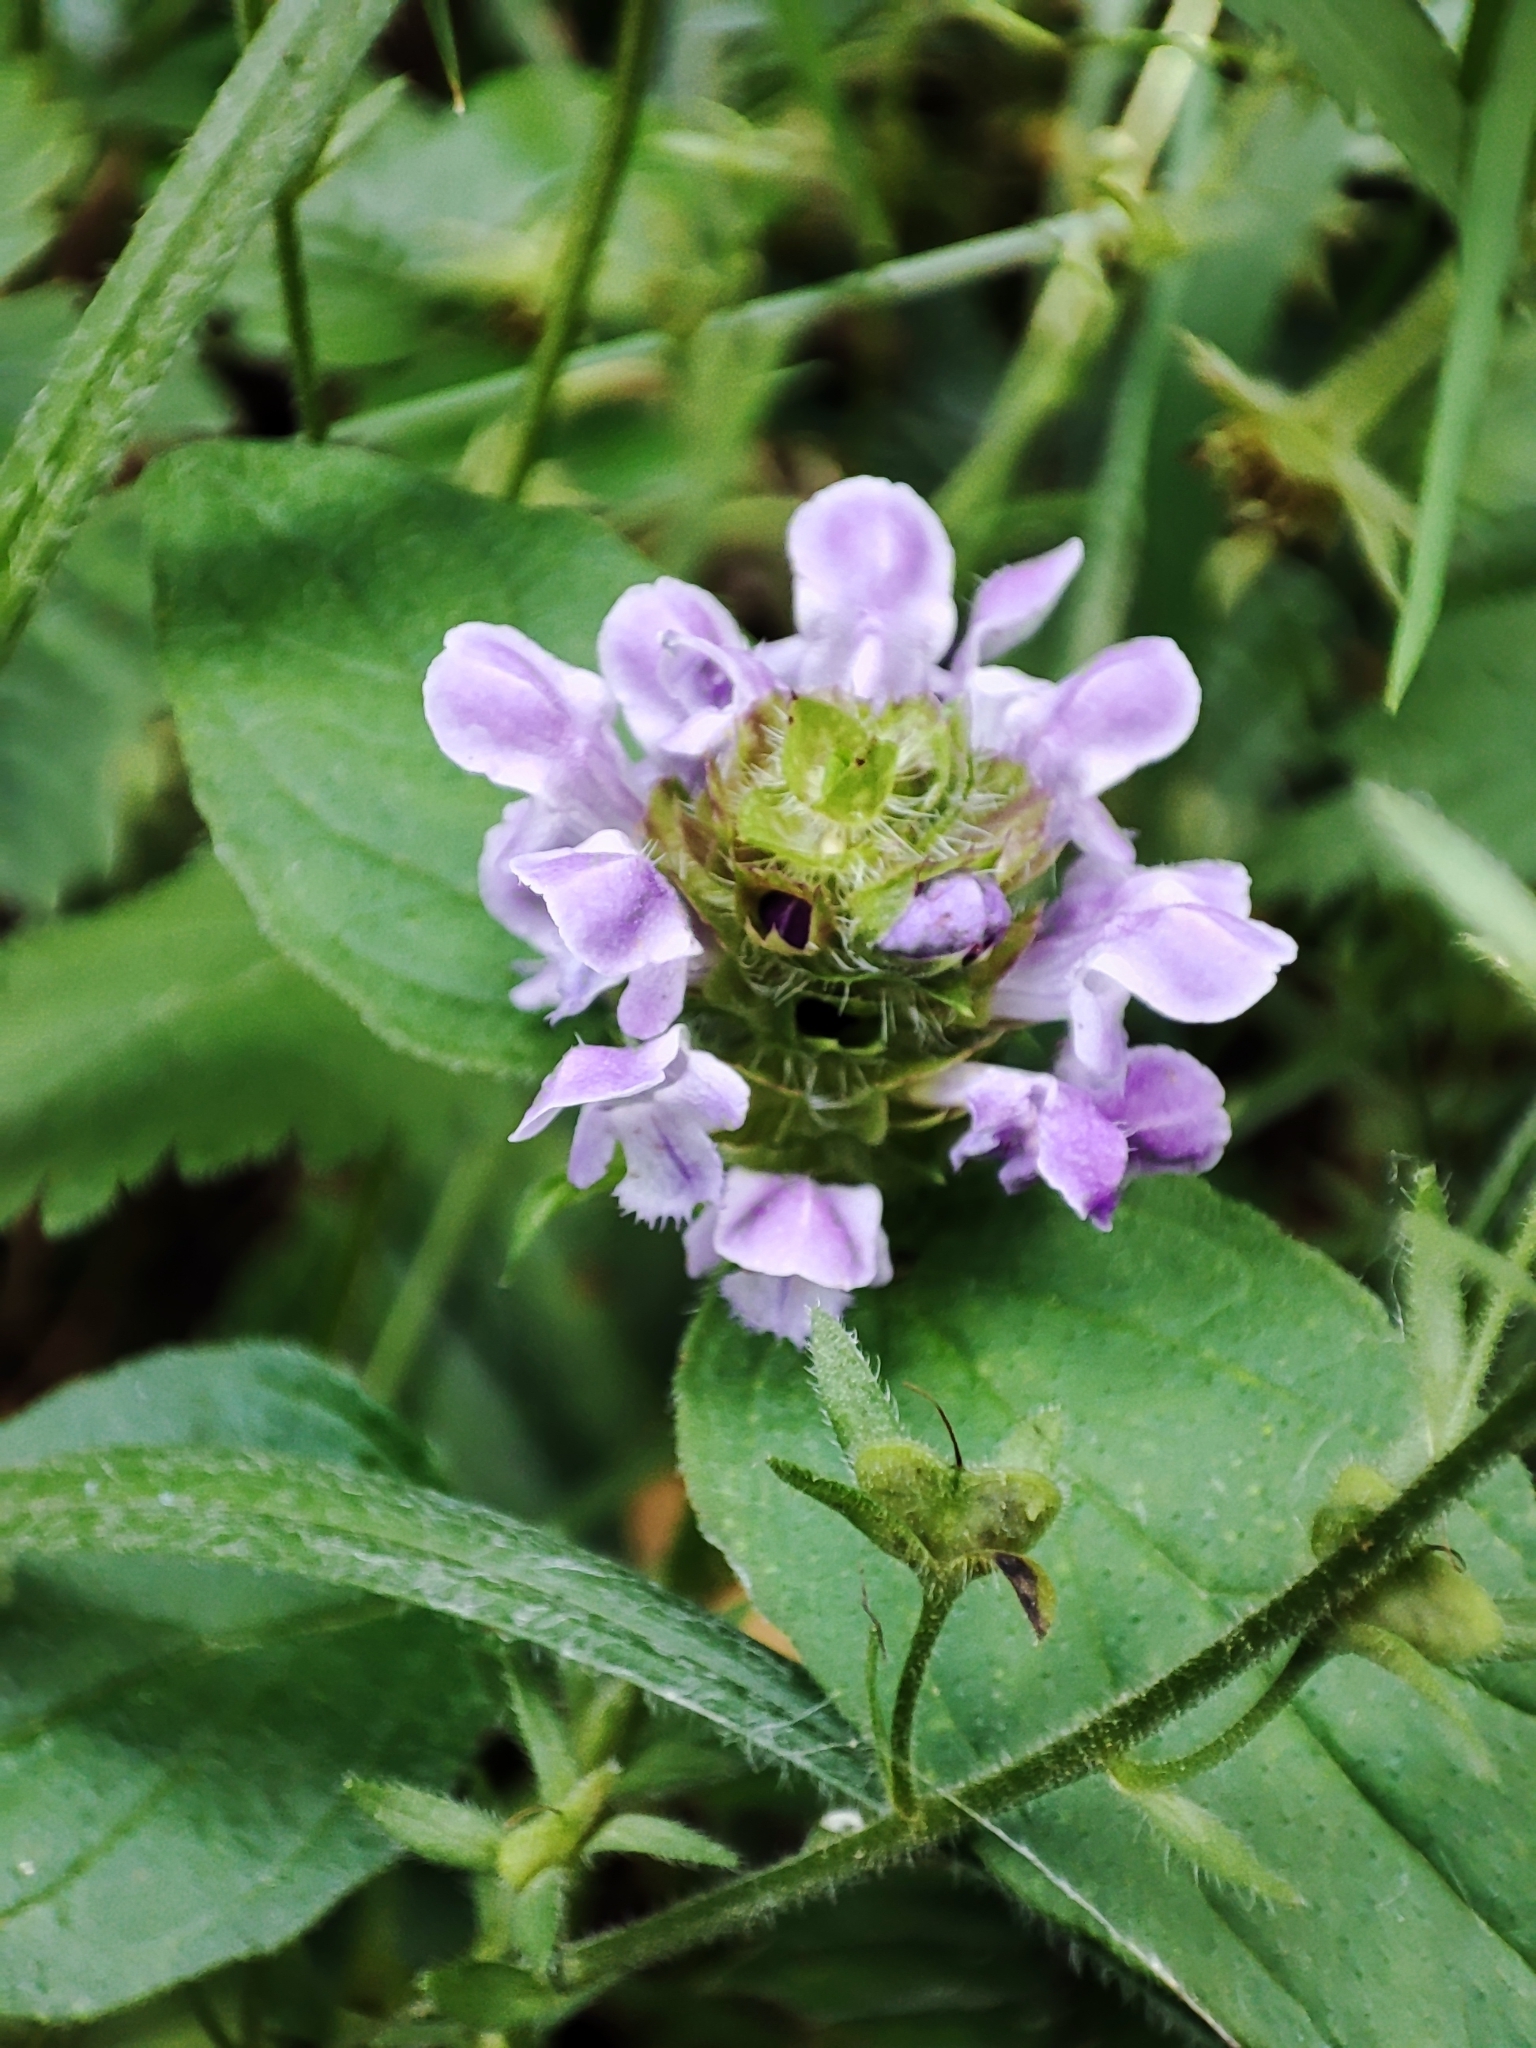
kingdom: Plantae
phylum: Tracheophyta
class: Magnoliopsida
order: Lamiales
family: Lamiaceae
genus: Prunella
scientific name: Prunella vulgaris
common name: Heal-all
